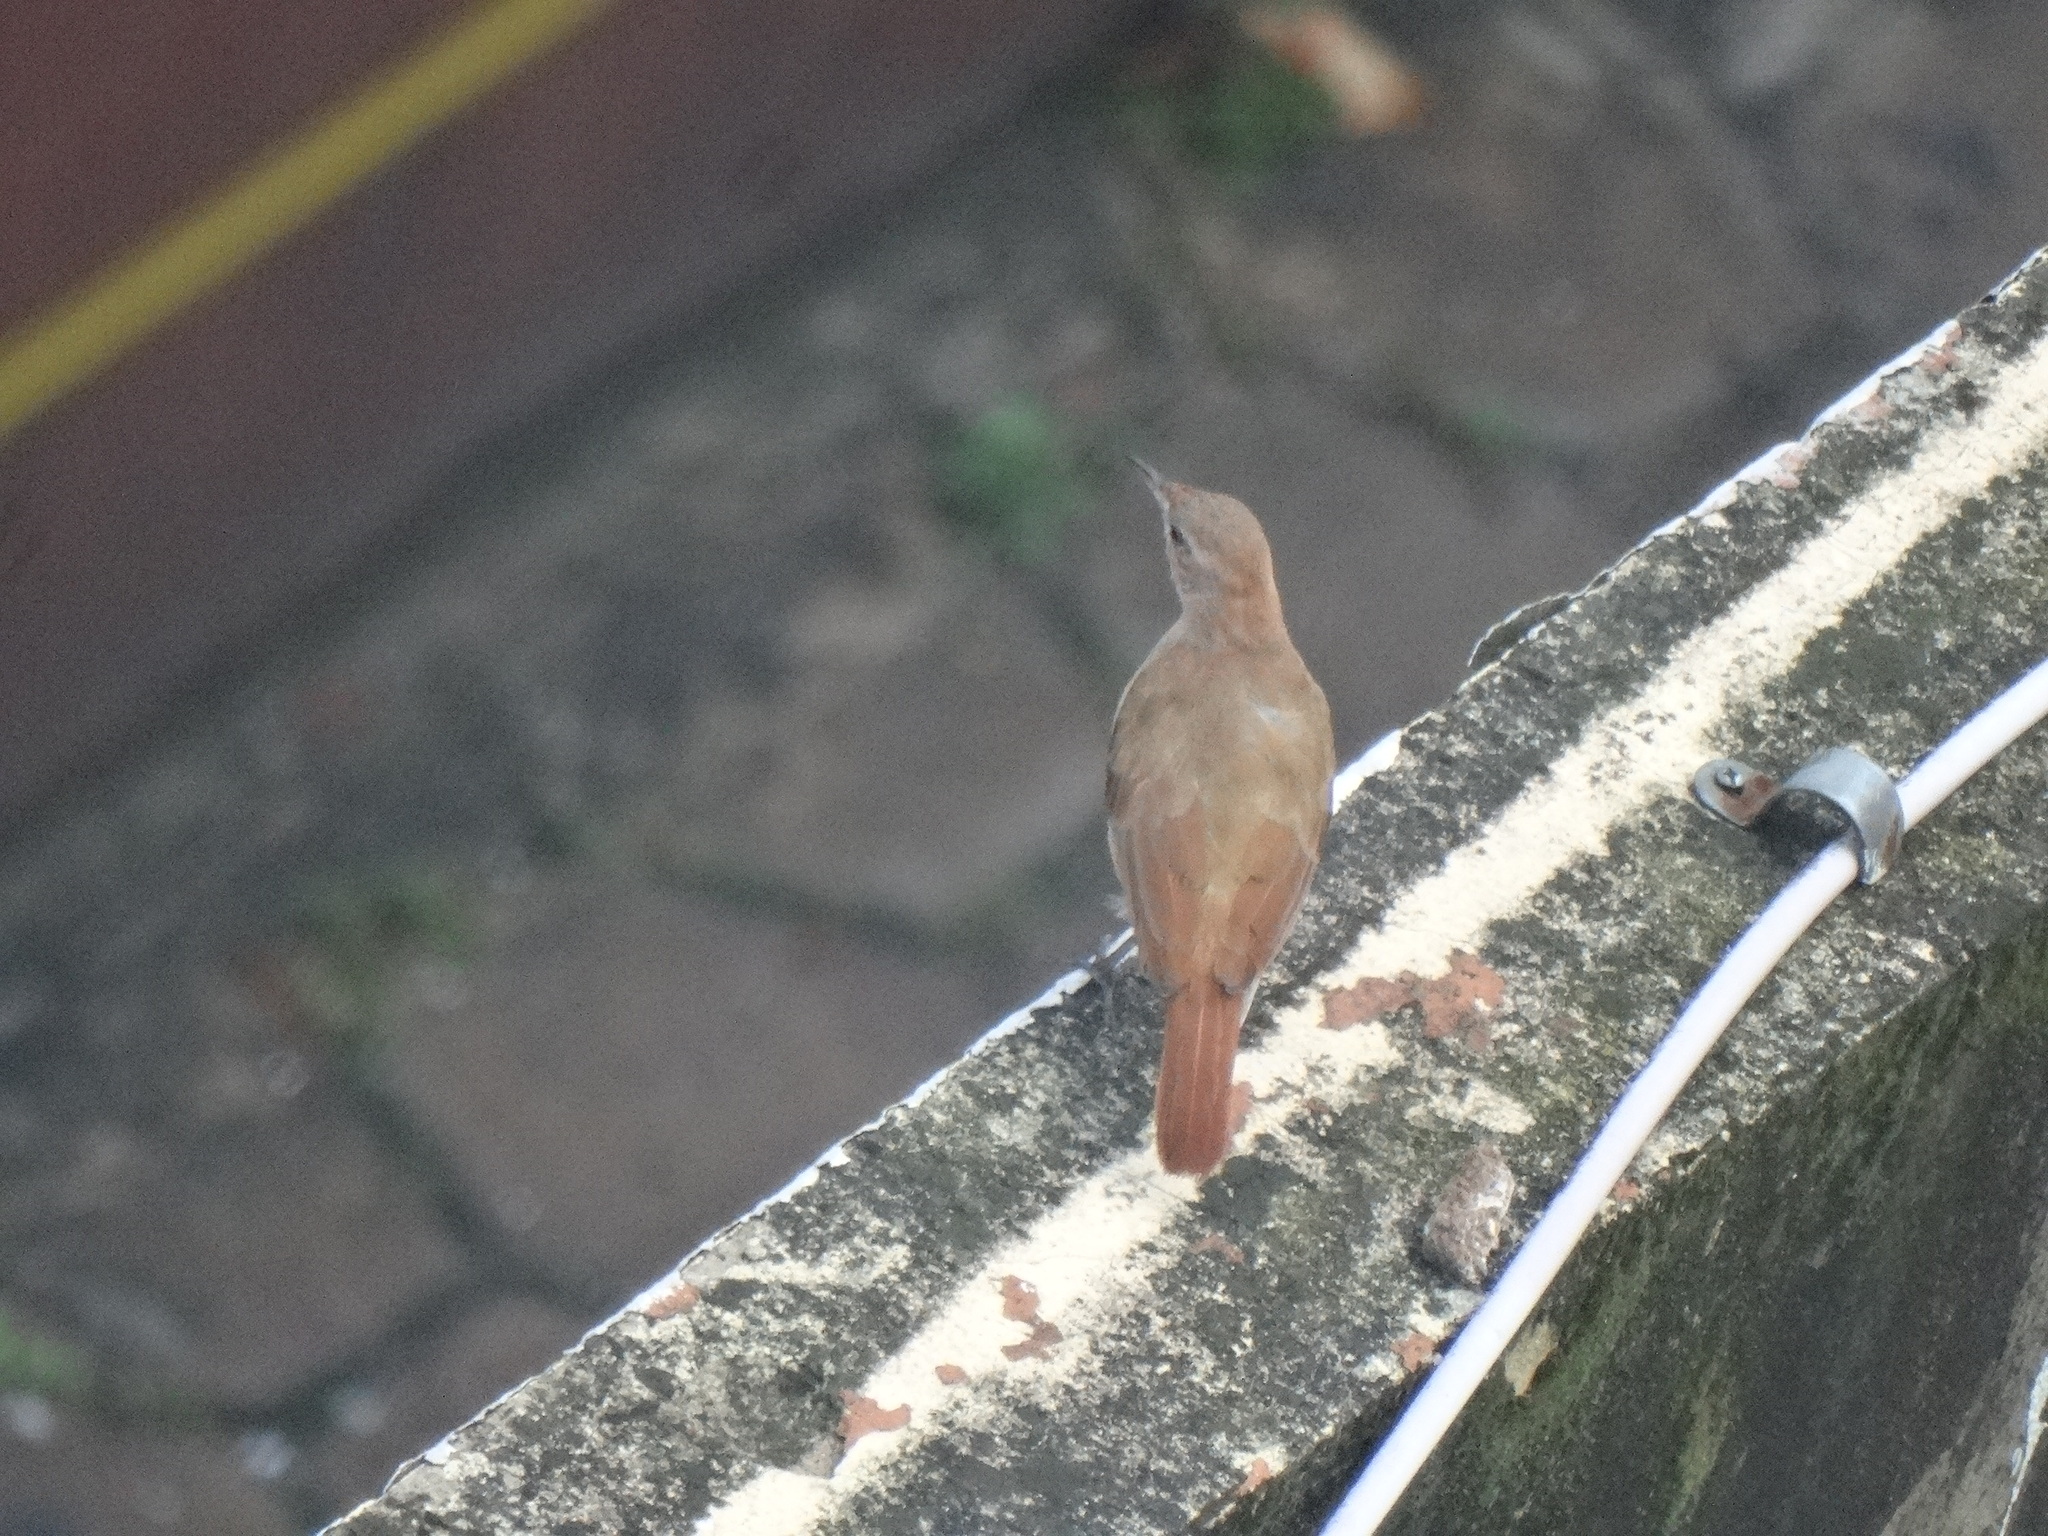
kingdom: Animalia
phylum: Chordata
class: Aves
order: Passeriformes
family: Furnariidae
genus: Furnarius
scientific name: Furnarius rufus
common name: Rufous hornero
